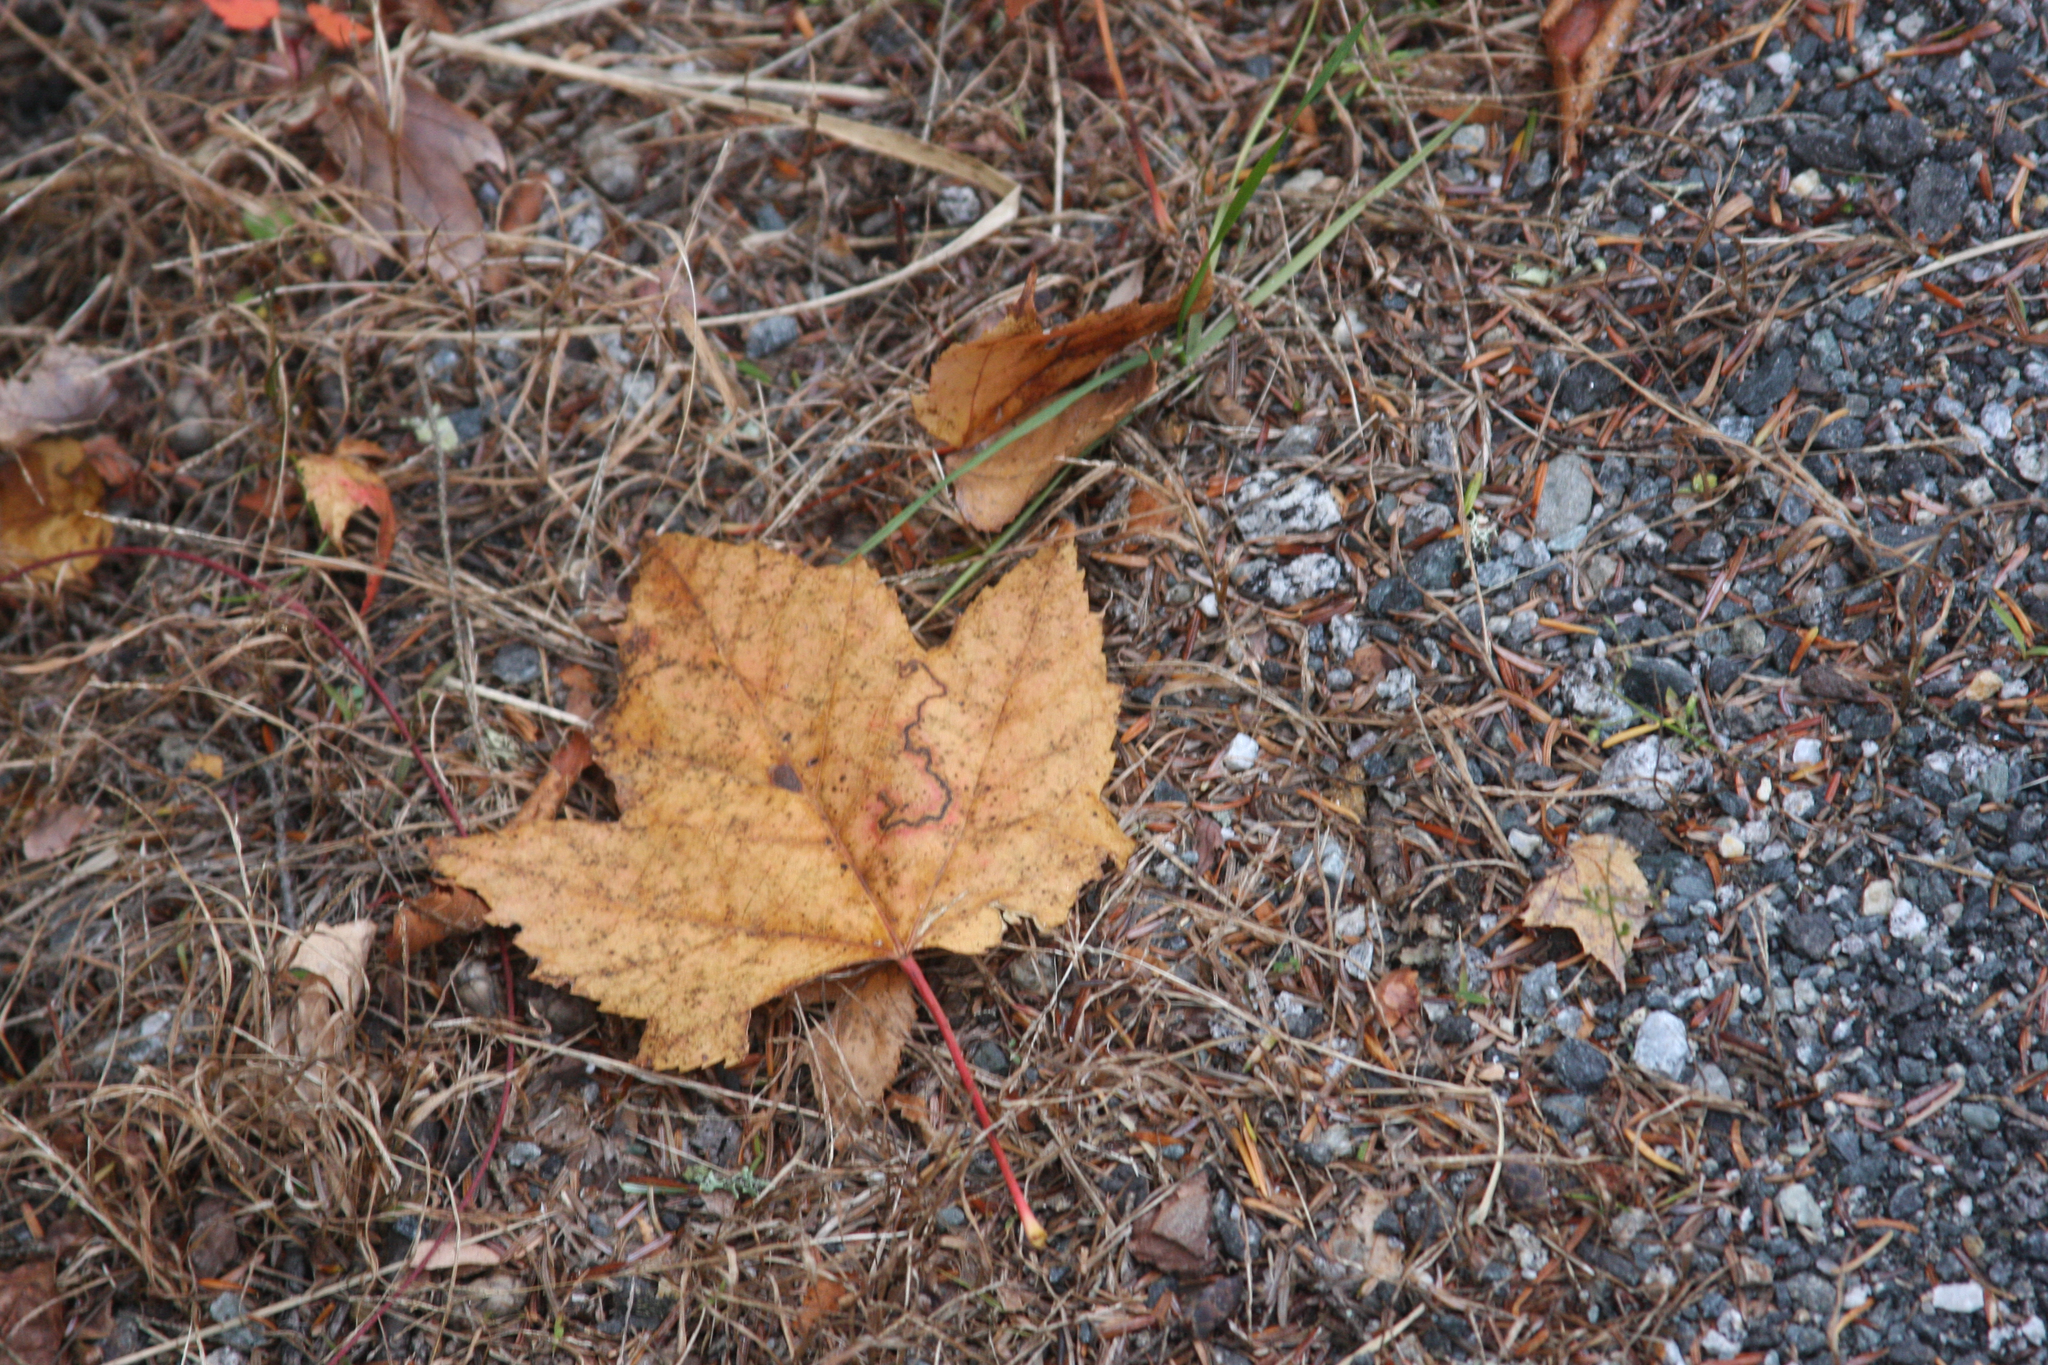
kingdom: Plantae
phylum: Tracheophyta
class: Magnoliopsida
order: Sapindales
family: Sapindaceae
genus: Acer
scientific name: Acer rubrum
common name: Red maple
